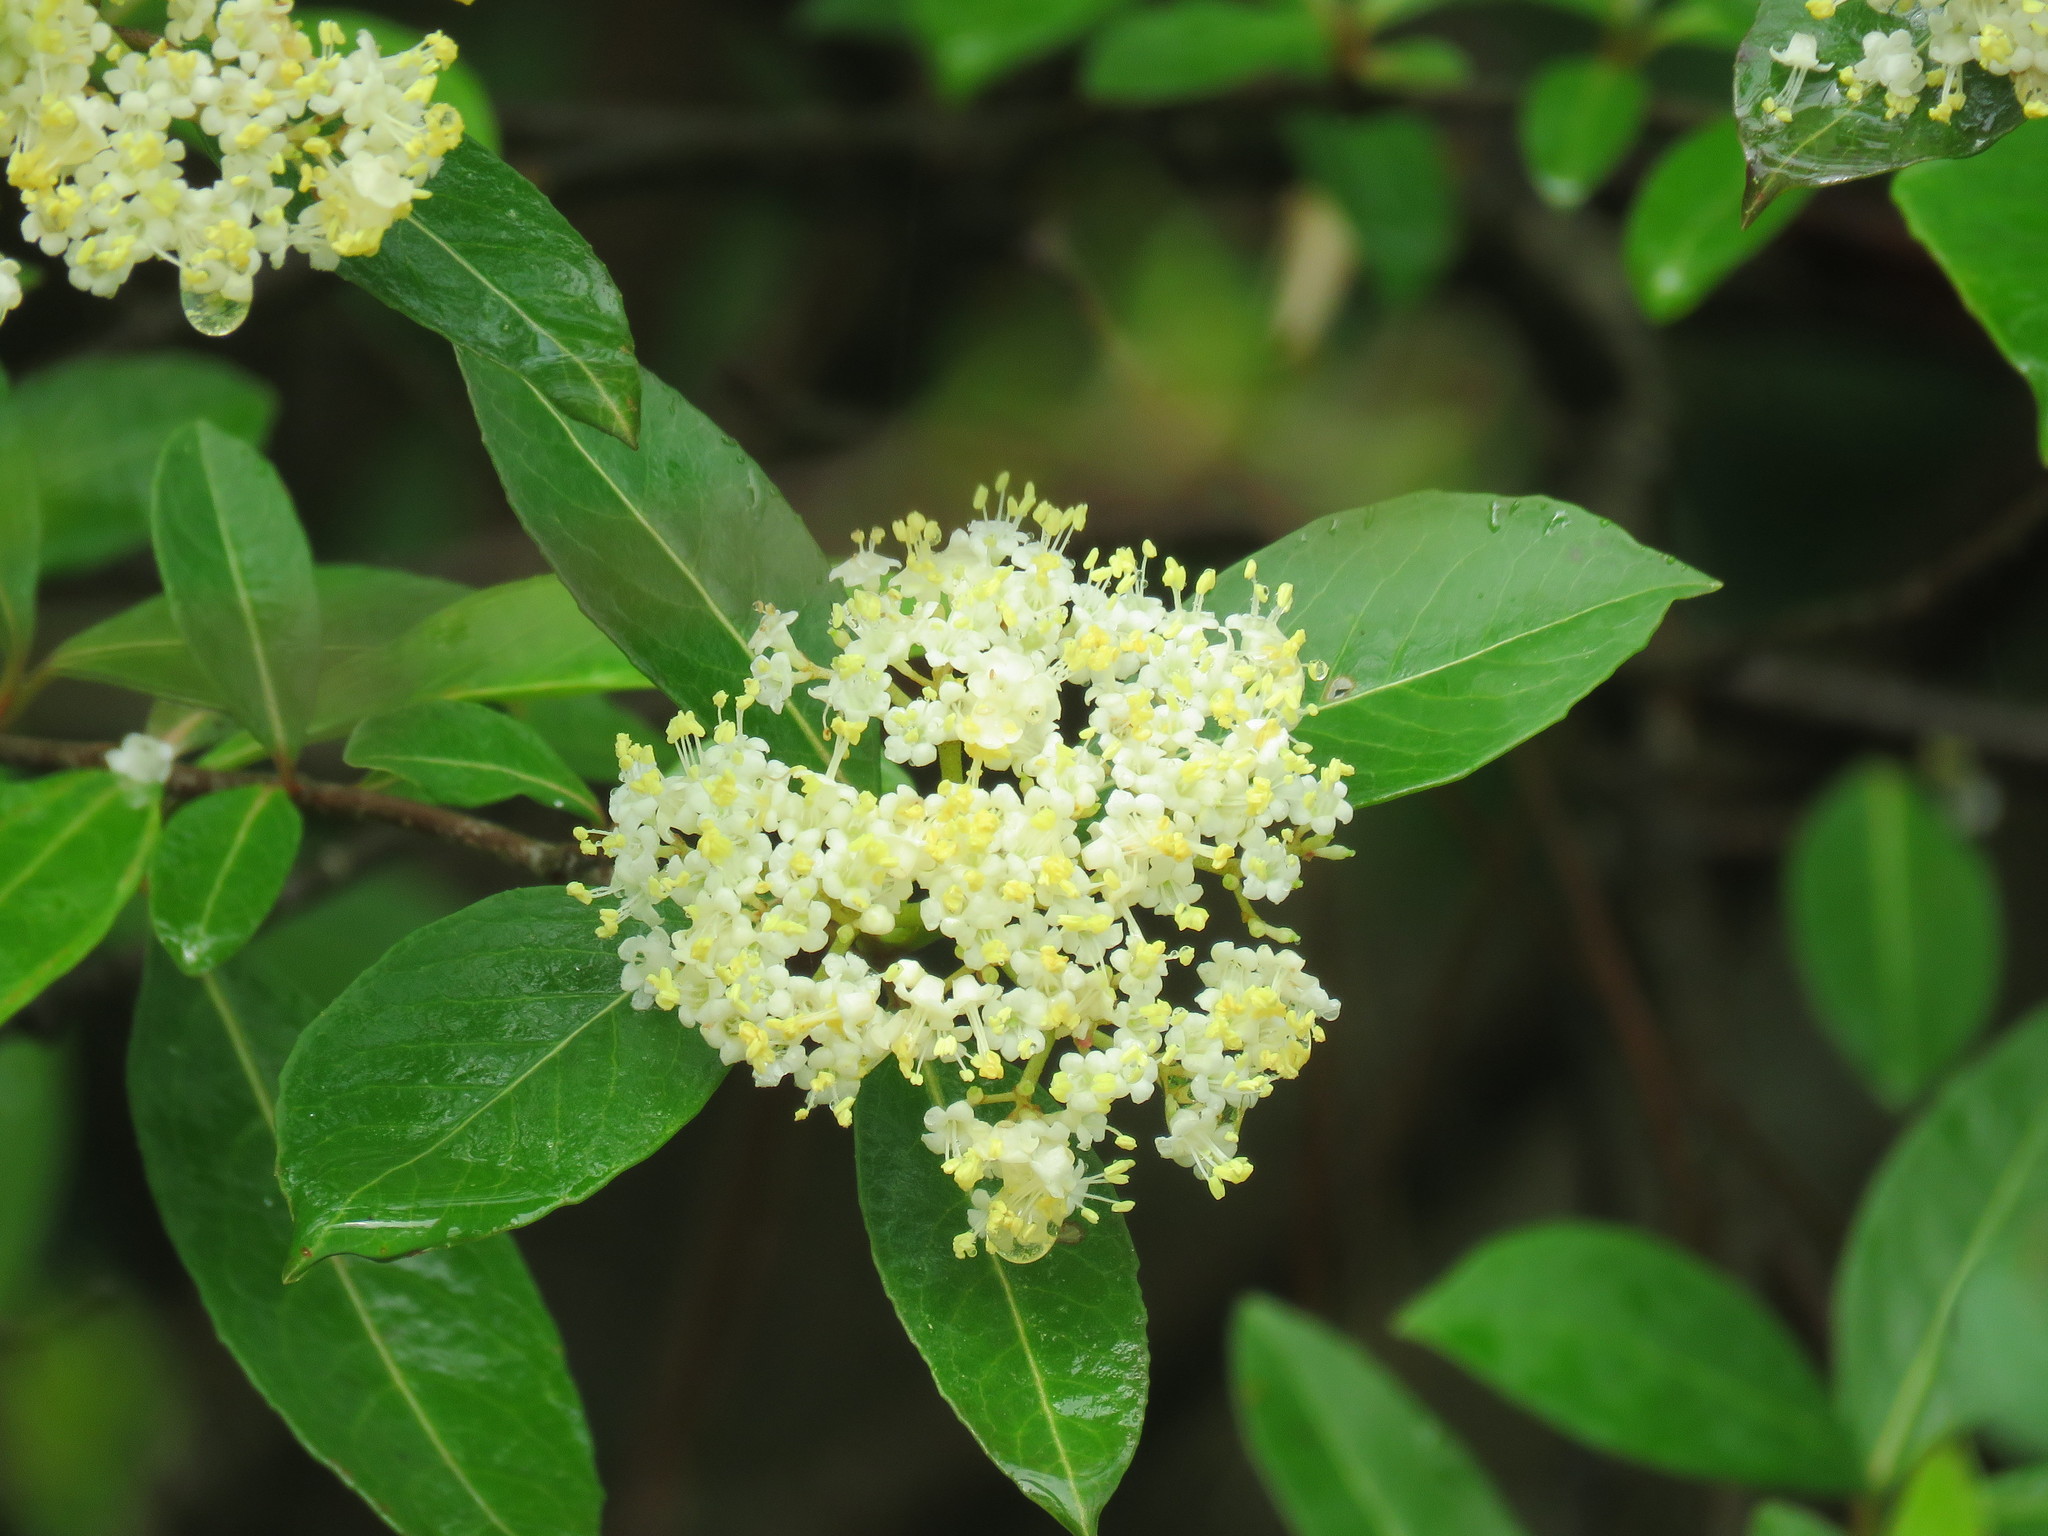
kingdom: Plantae
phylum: Tracheophyta
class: Magnoliopsida
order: Dipsacales
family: Viburnaceae
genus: Viburnum
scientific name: Viburnum rufidulum
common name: Blue haw
